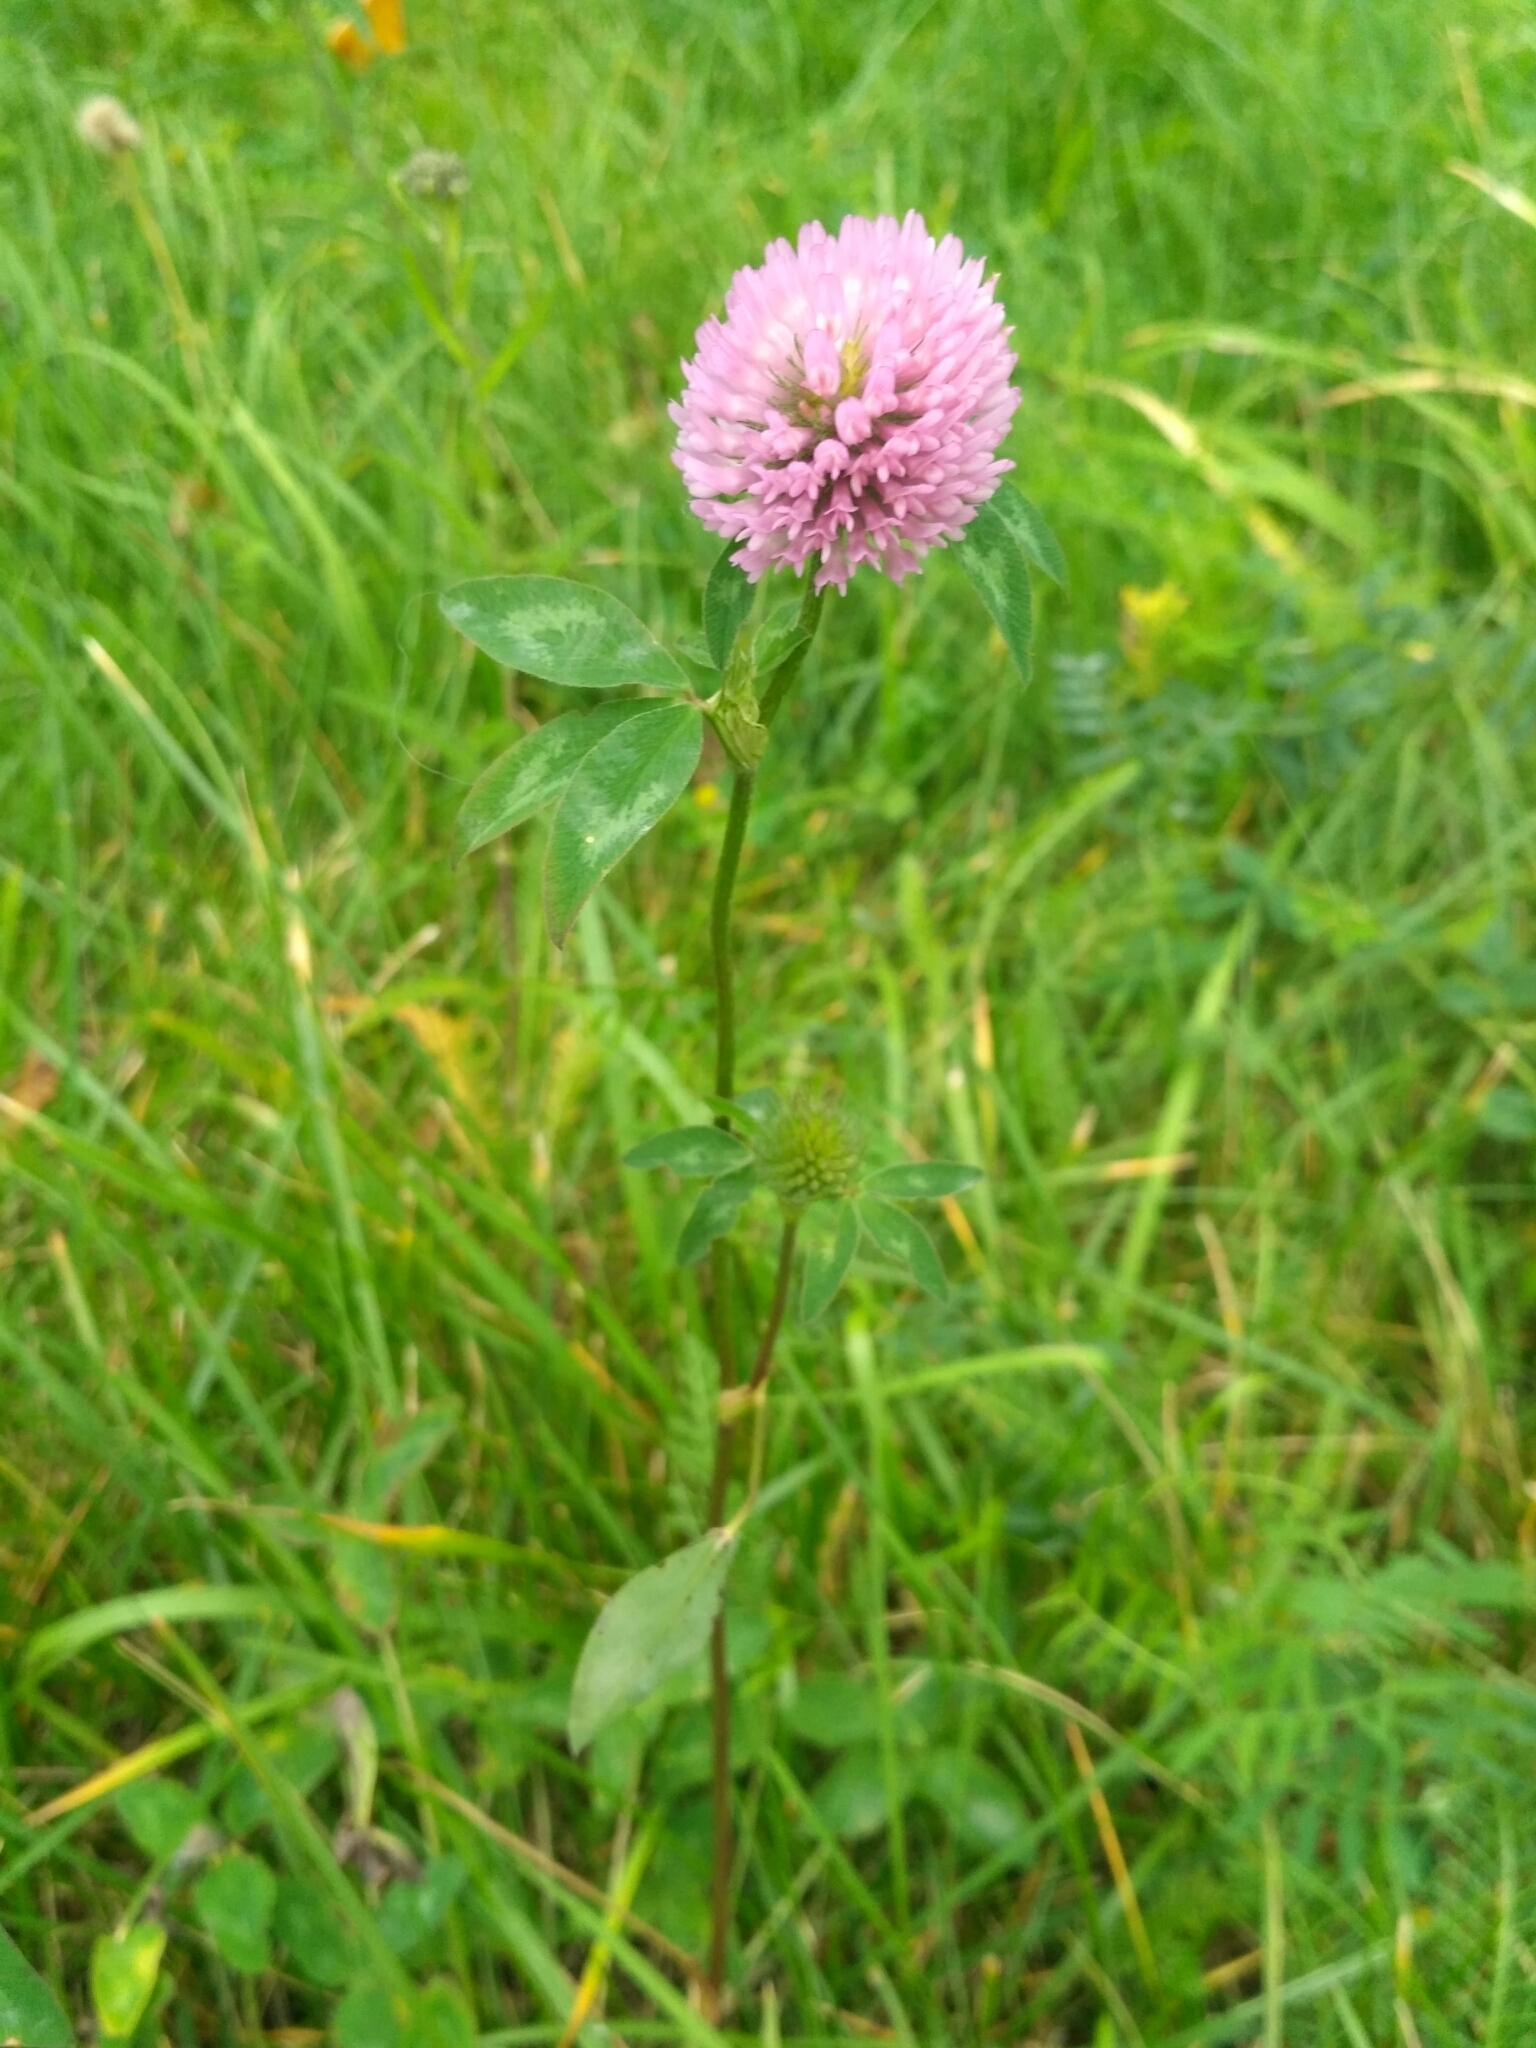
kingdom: Plantae
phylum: Tracheophyta
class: Magnoliopsida
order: Fabales
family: Fabaceae
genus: Trifolium
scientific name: Trifolium pratense
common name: Red clover
